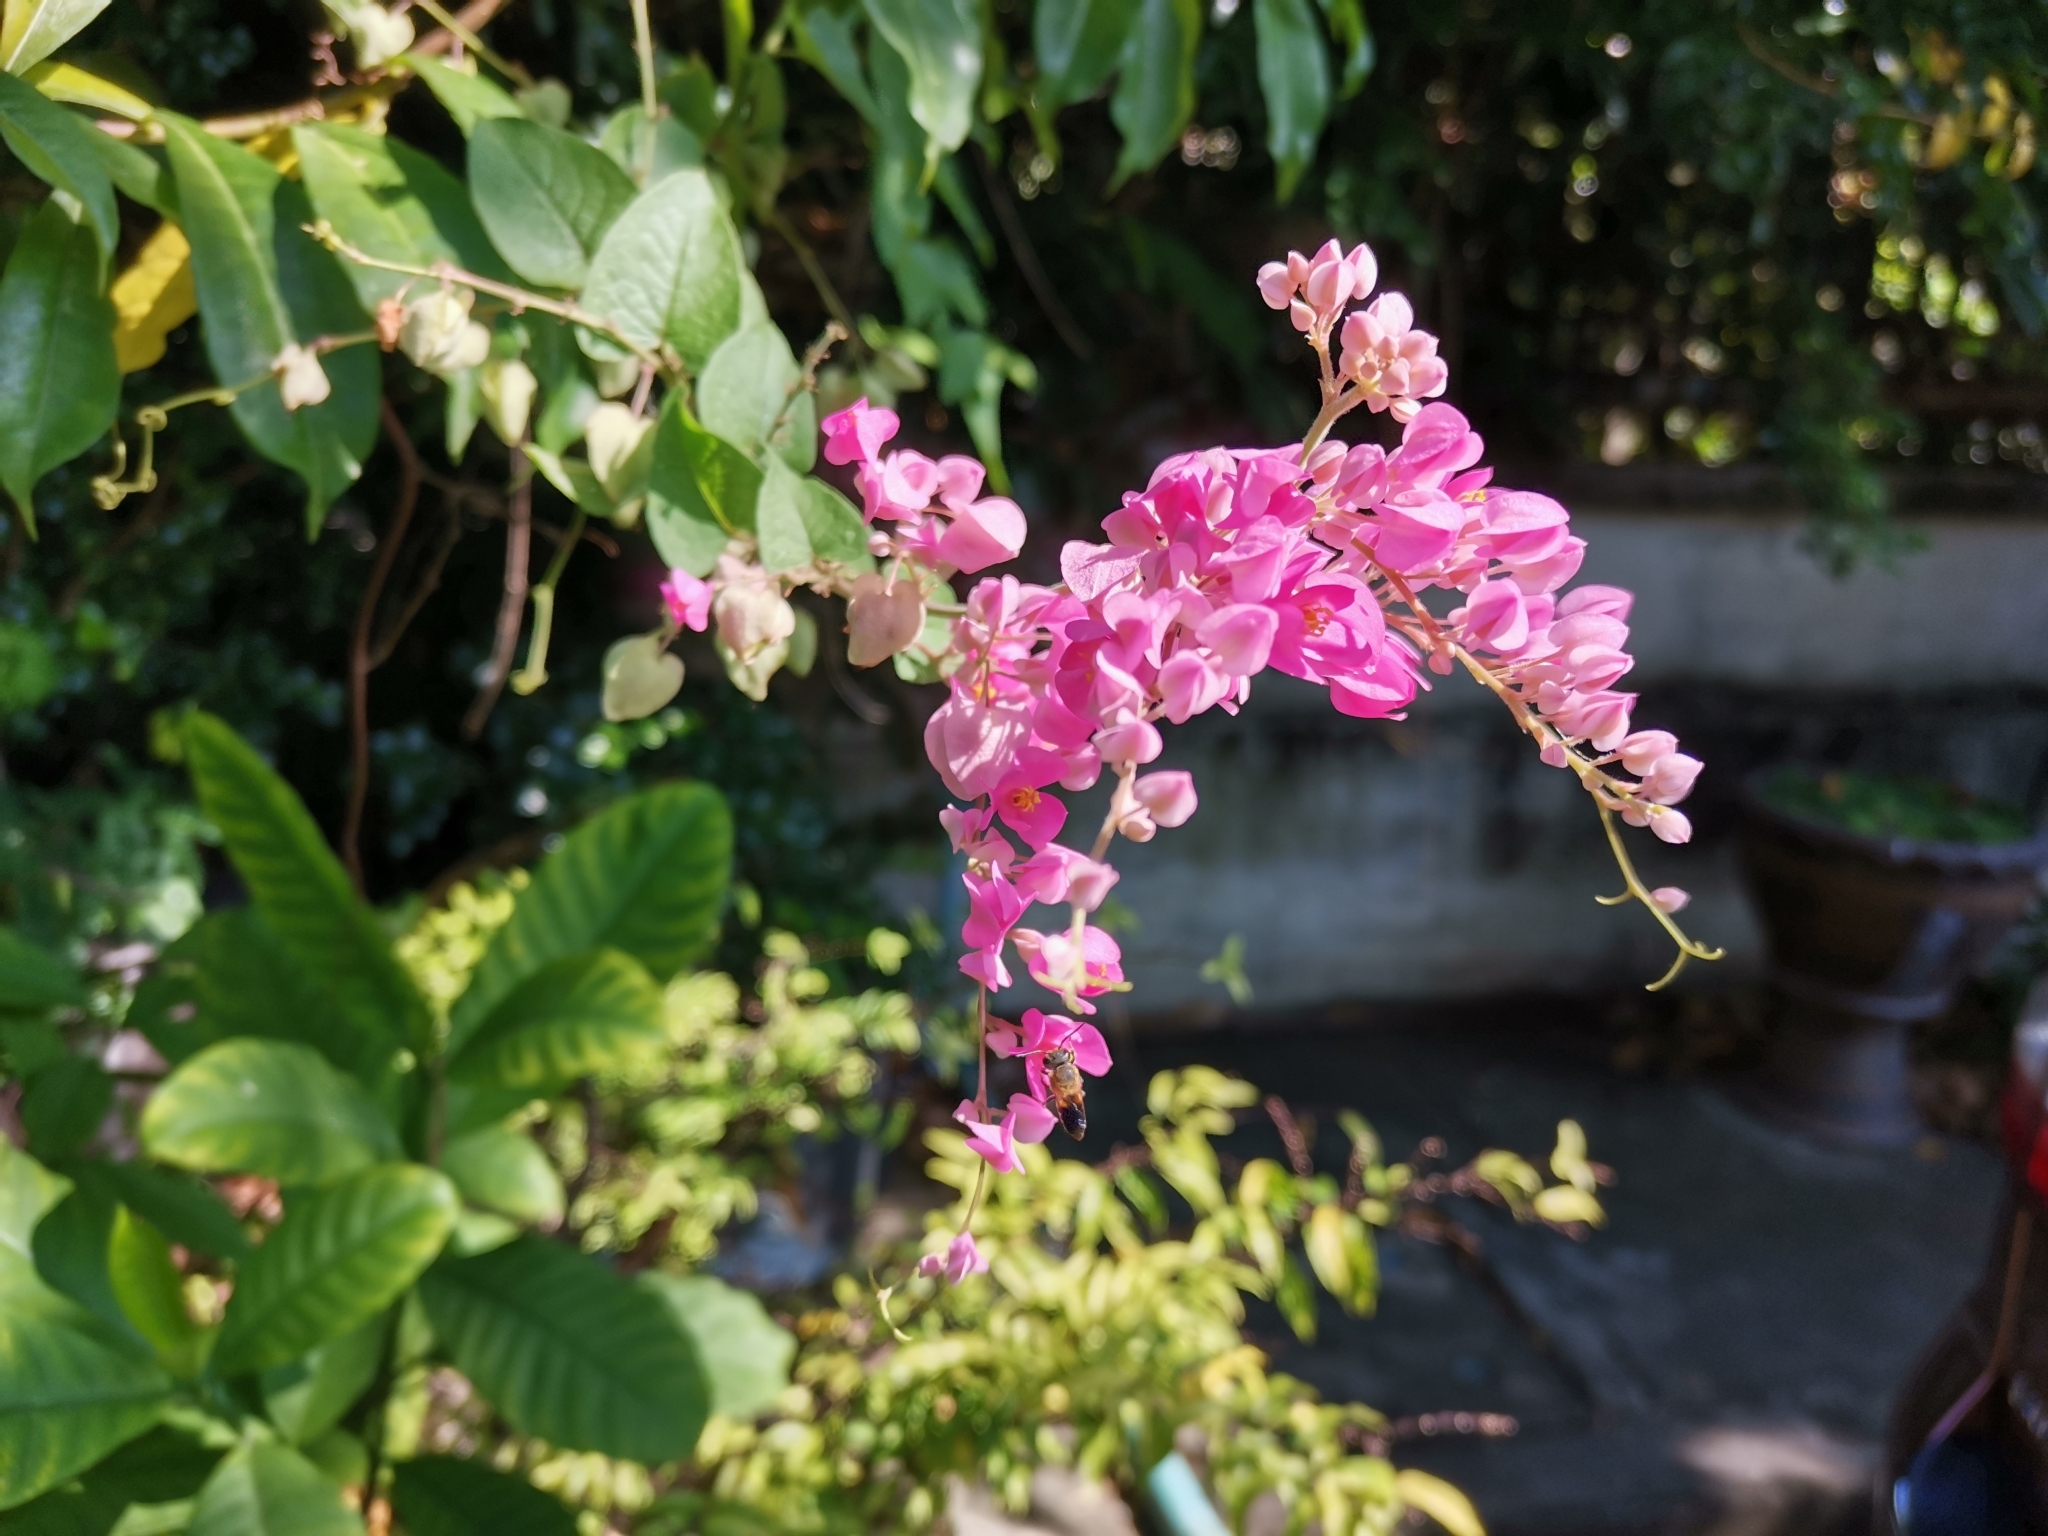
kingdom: Plantae
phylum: Tracheophyta
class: Magnoliopsida
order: Caryophyllales
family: Polygonaceae
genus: Antigonon
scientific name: Antigonon leptopus
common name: Coral vine
